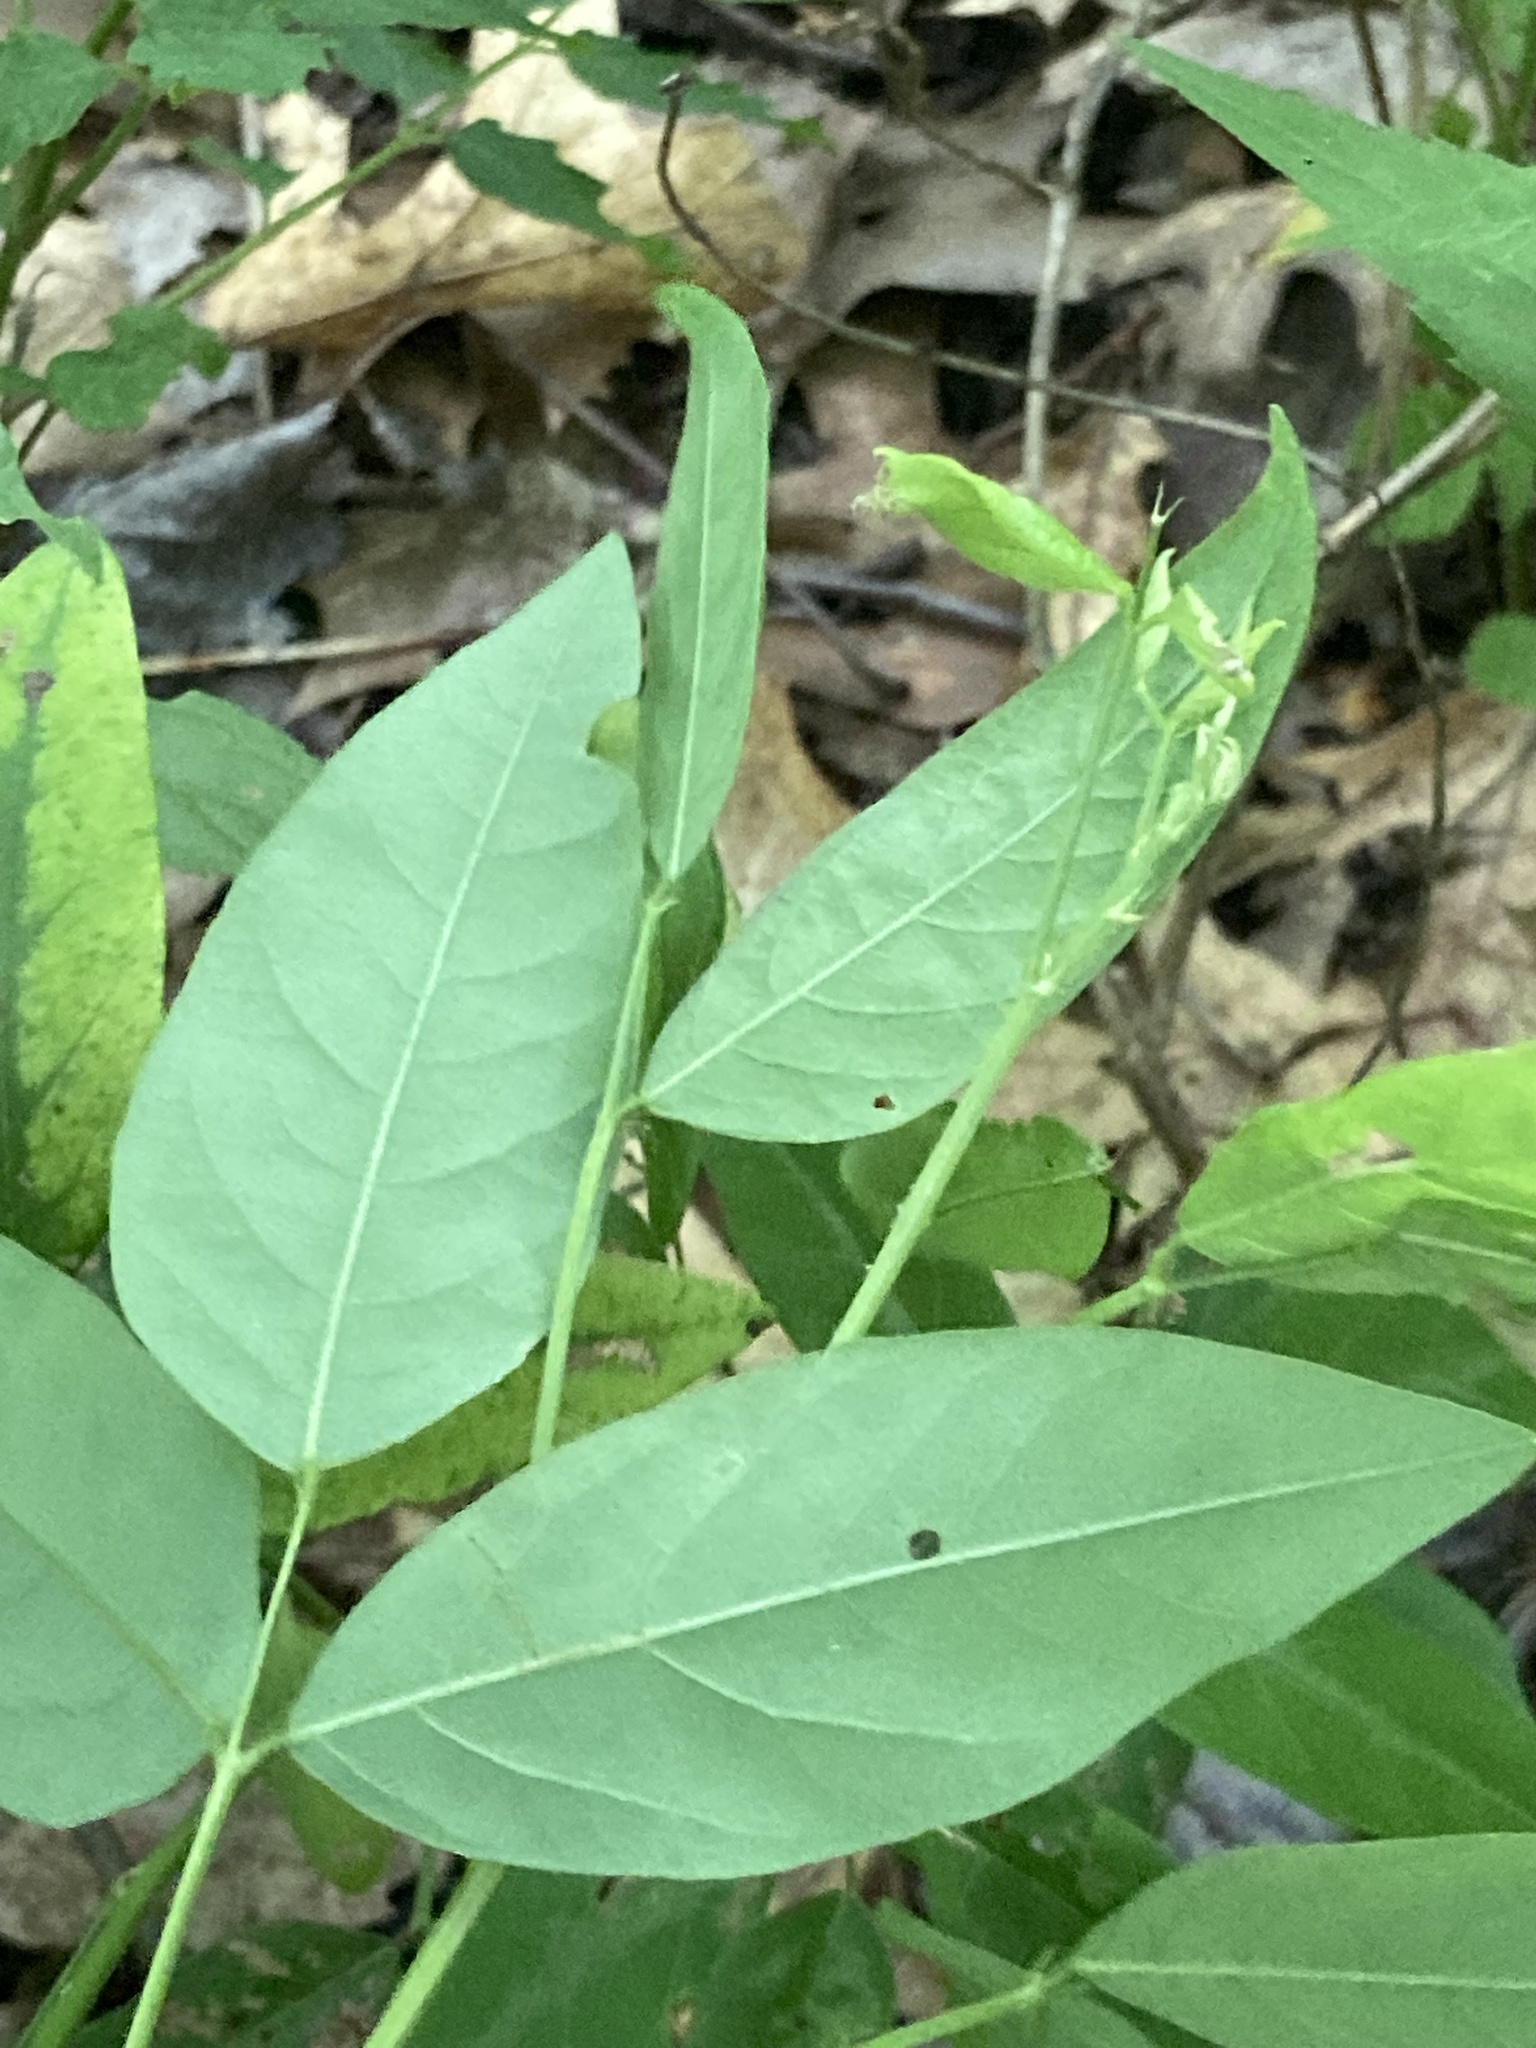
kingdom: Plantae
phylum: Tracheophyta
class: Magnoliopsida
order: Fabales
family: Fabaceae
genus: Desmodium
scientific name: Desmodium perplexum
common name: Perplexed tick trefoil
